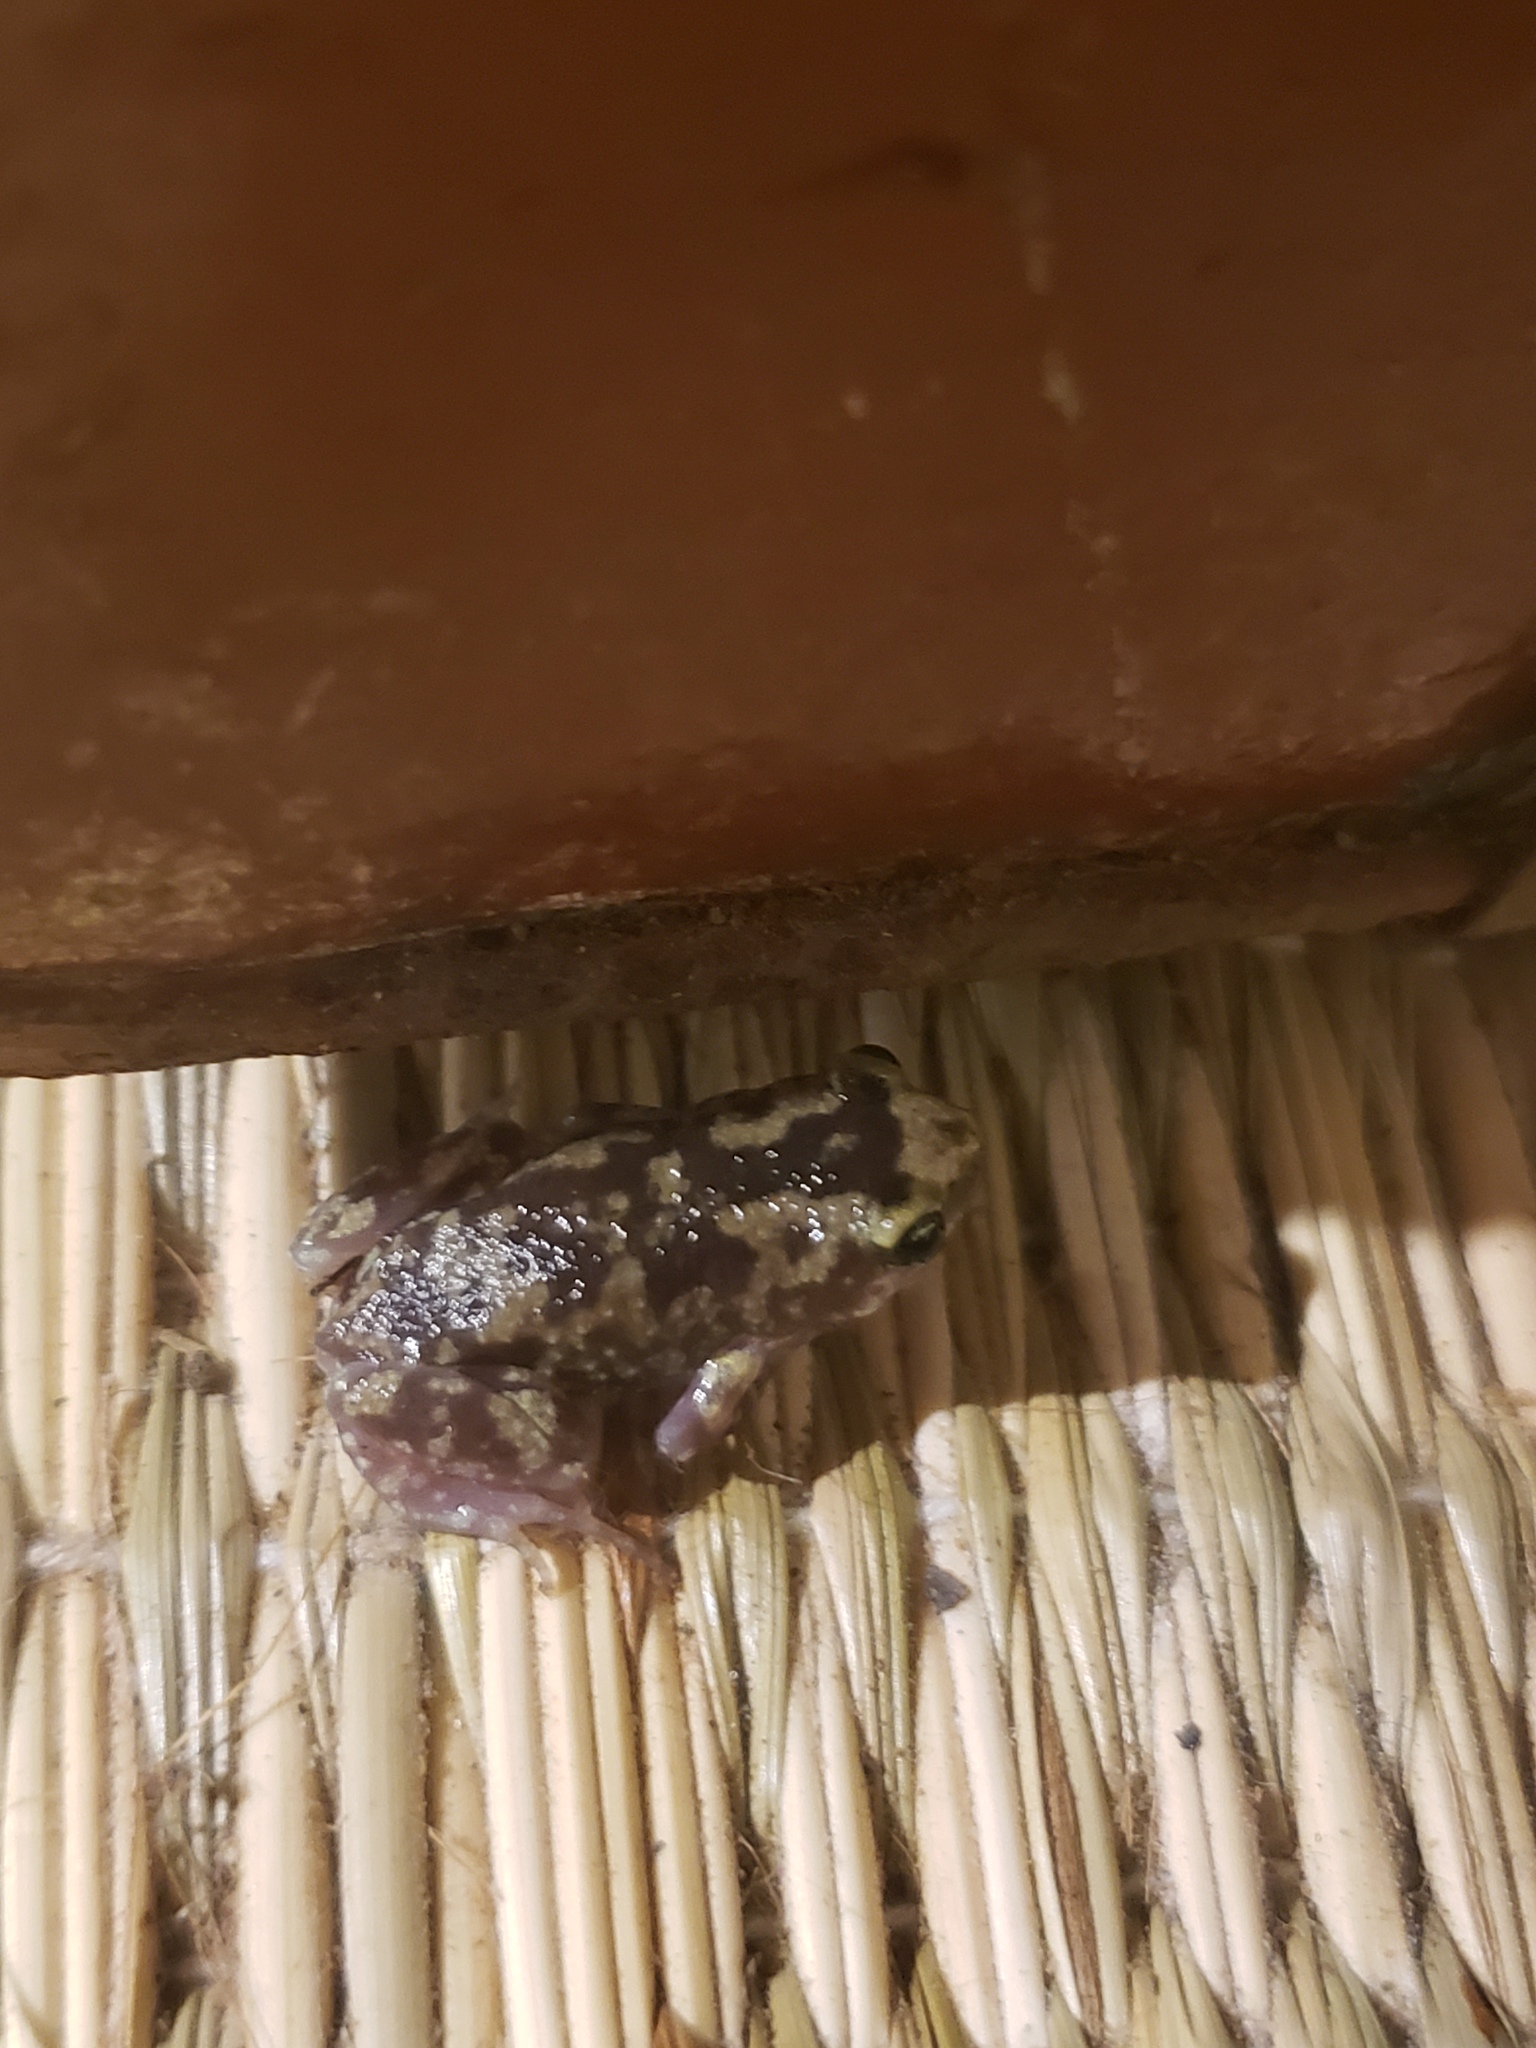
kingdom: Animalia
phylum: Chordata
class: Amphibia
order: Anura
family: Microhylidae
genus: Uperodon
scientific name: Uperodon variegatus
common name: Eluru dot frog
